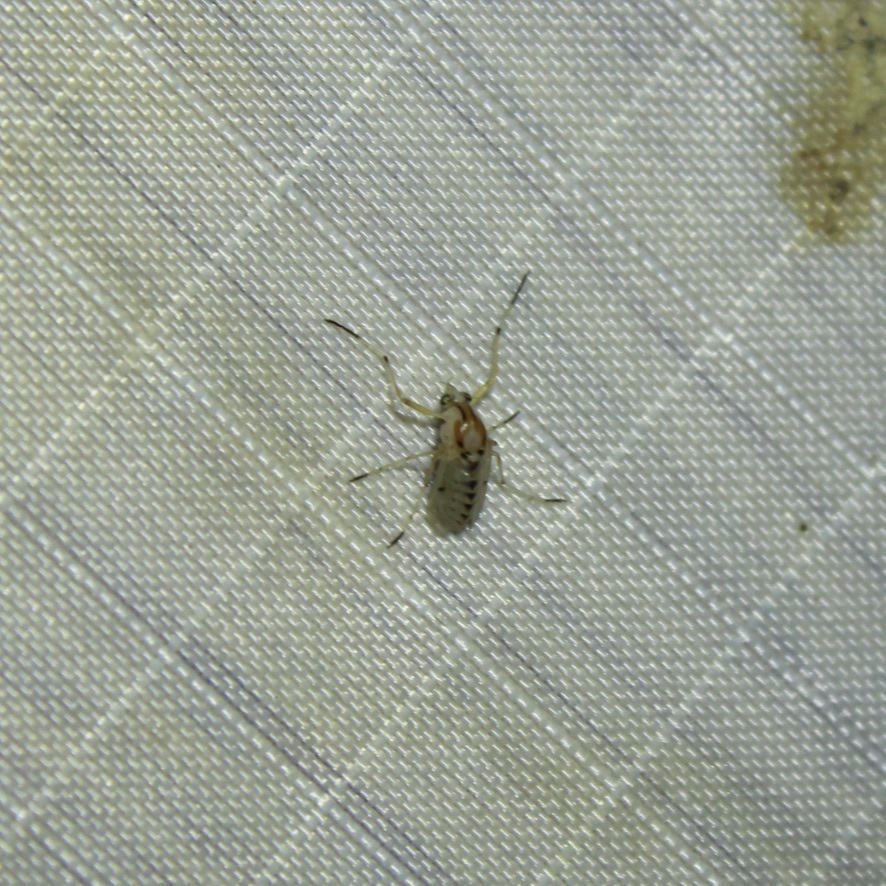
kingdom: Animalia
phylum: Arthropoda
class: Insecta
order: Diptera
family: Chironomidae
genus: Coelotanypus
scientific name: Coelotanypus concinnus
